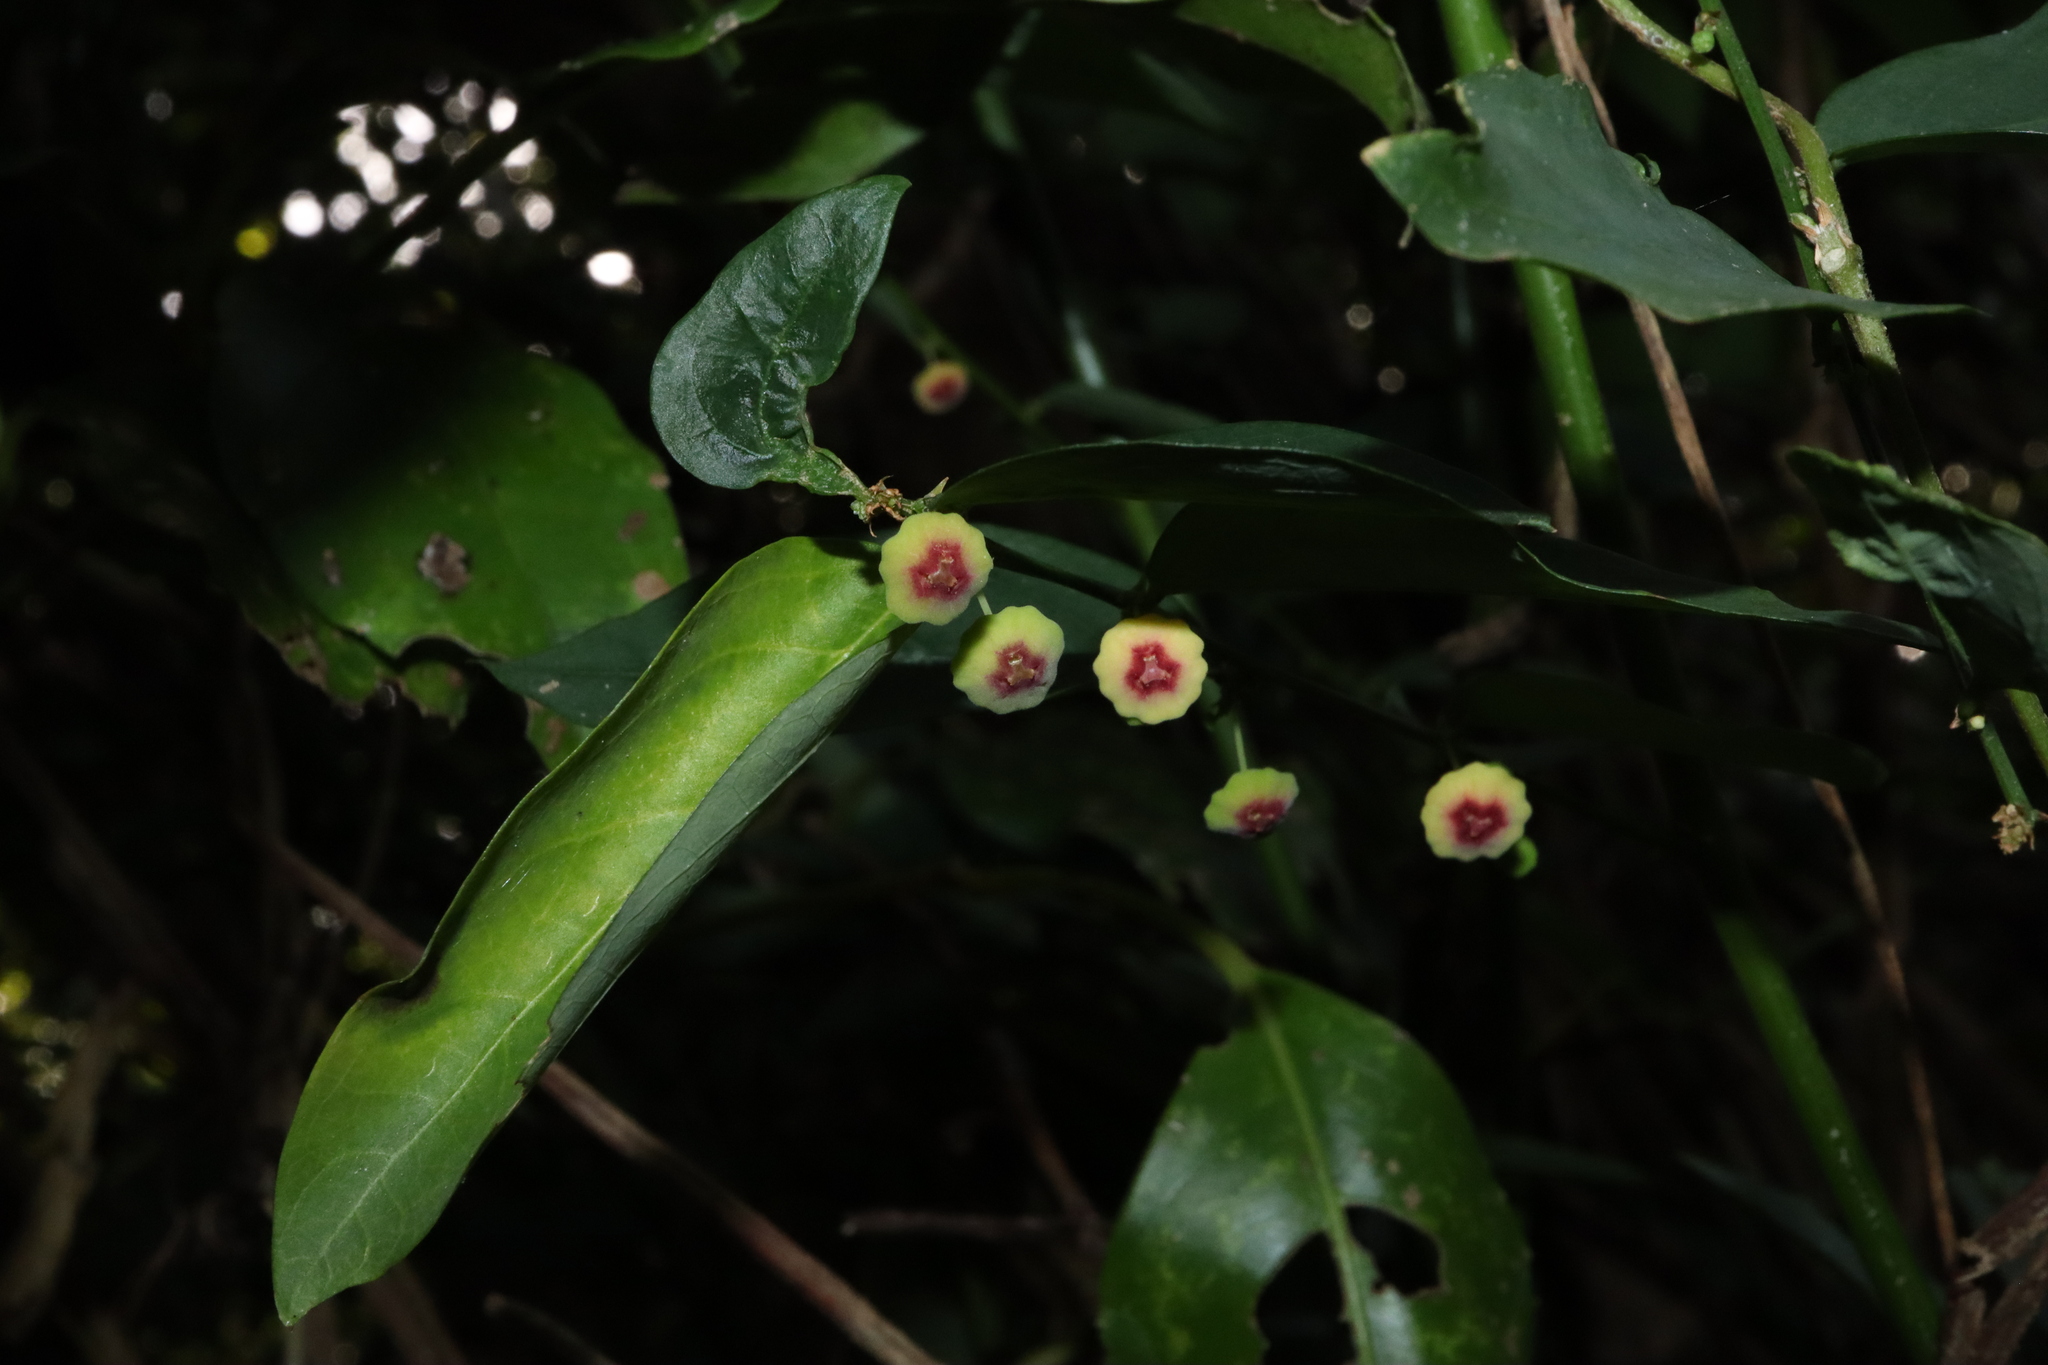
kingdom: Plantae
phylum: Tracheophyta
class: Magnoliopsida
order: Malpighiales
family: Phyllanthaceae
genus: Breynia
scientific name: Breynia androgyna
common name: Star gooseberry
